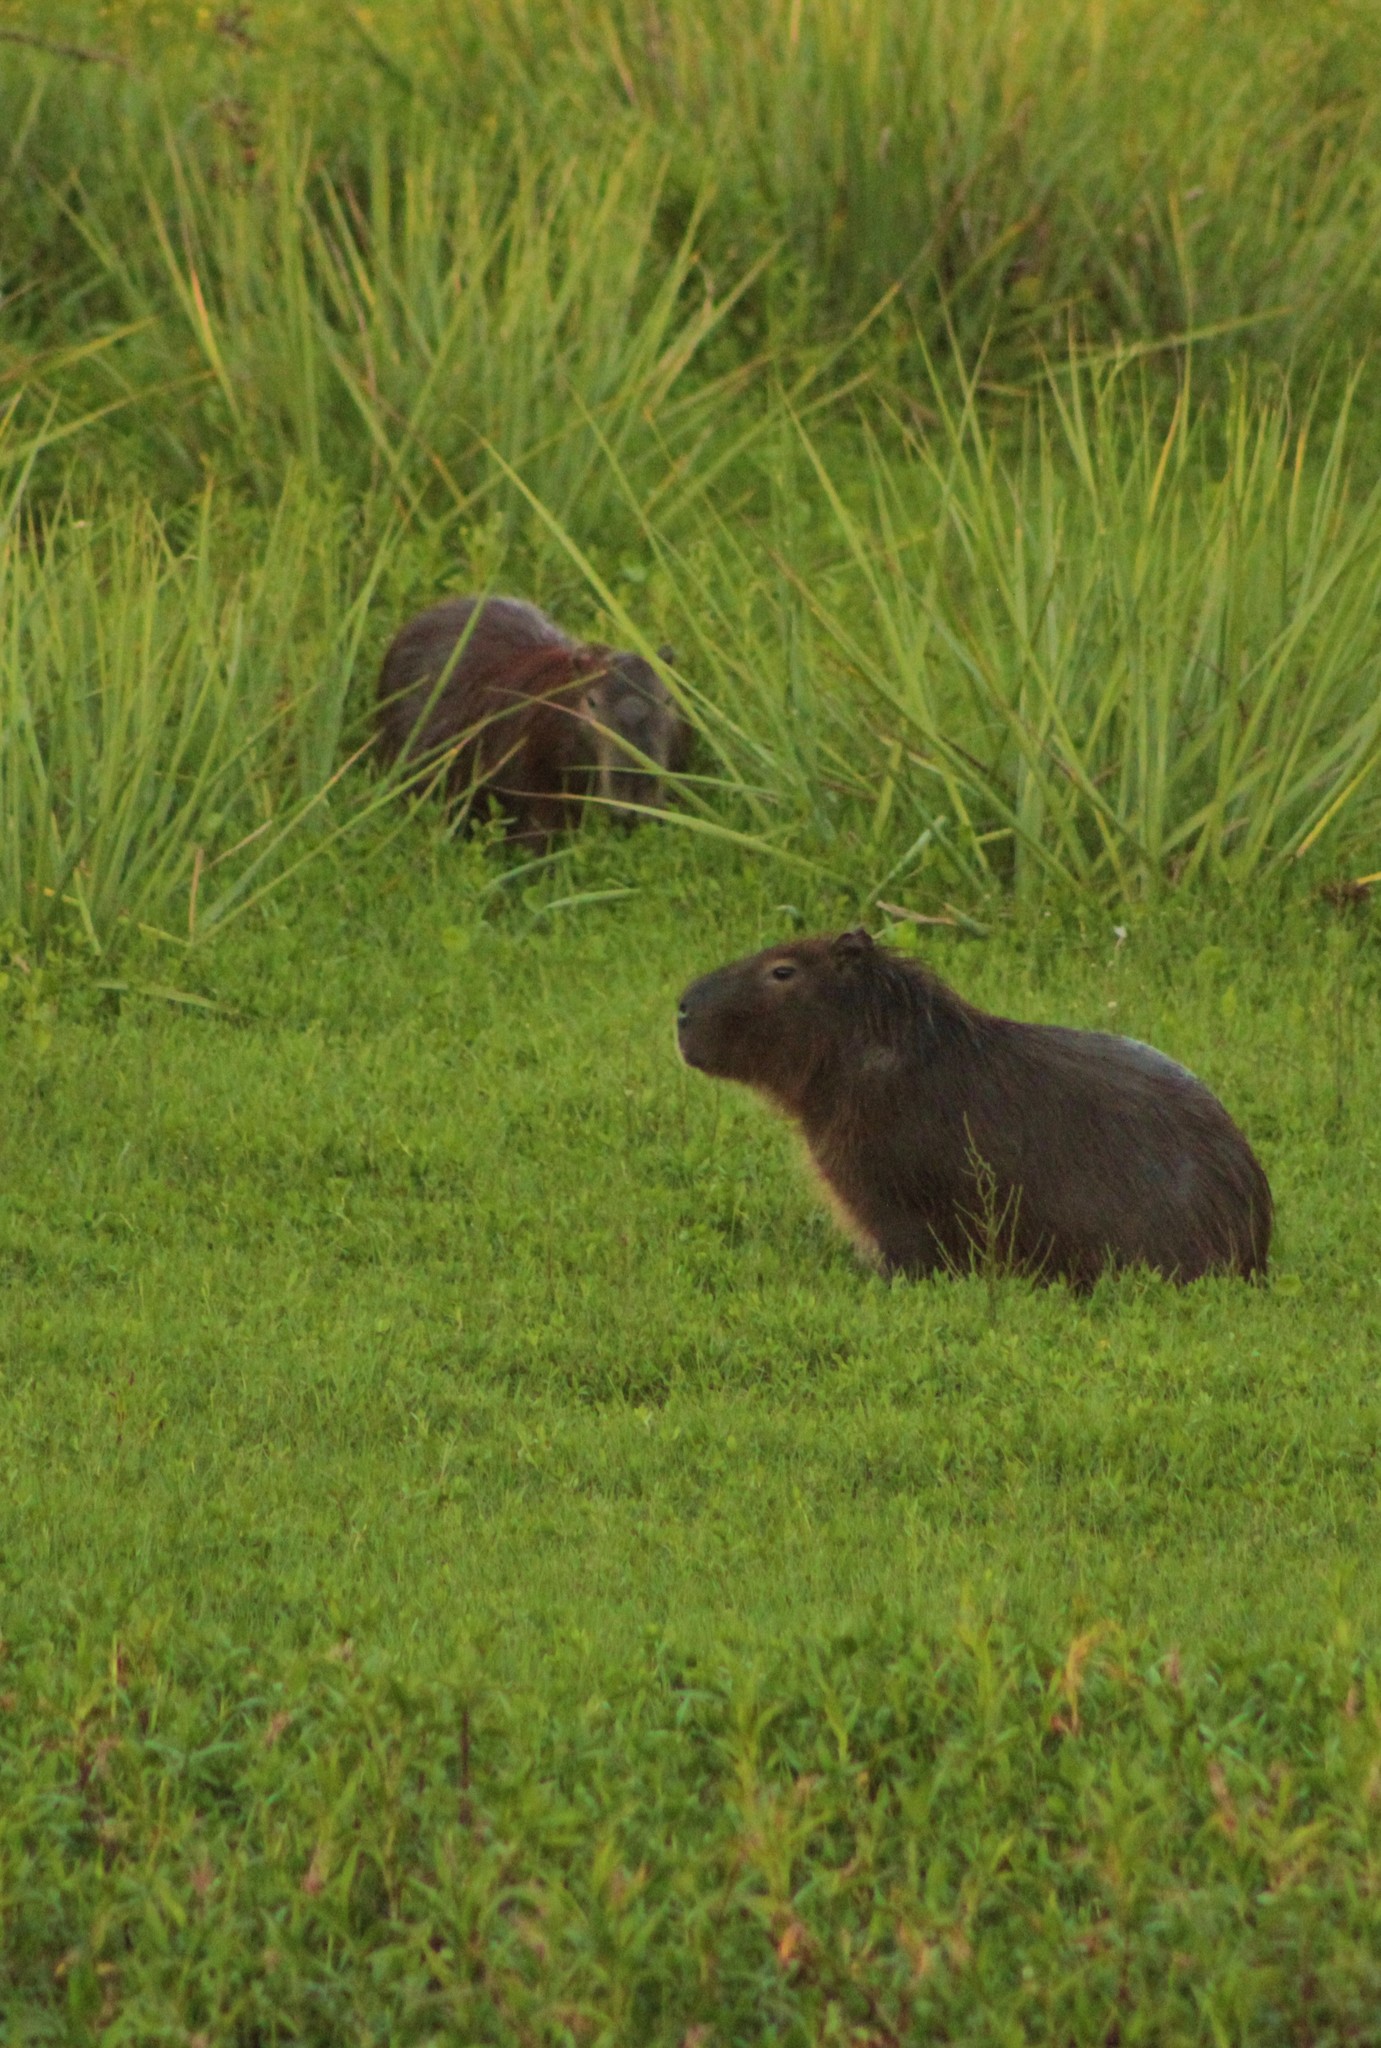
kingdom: Animalia
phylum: Chordata
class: Mammalia
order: Rodentia
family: Caviidae
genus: Hydrochoerus
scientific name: Hydrochoerus hydrochaeris
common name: Capybara
